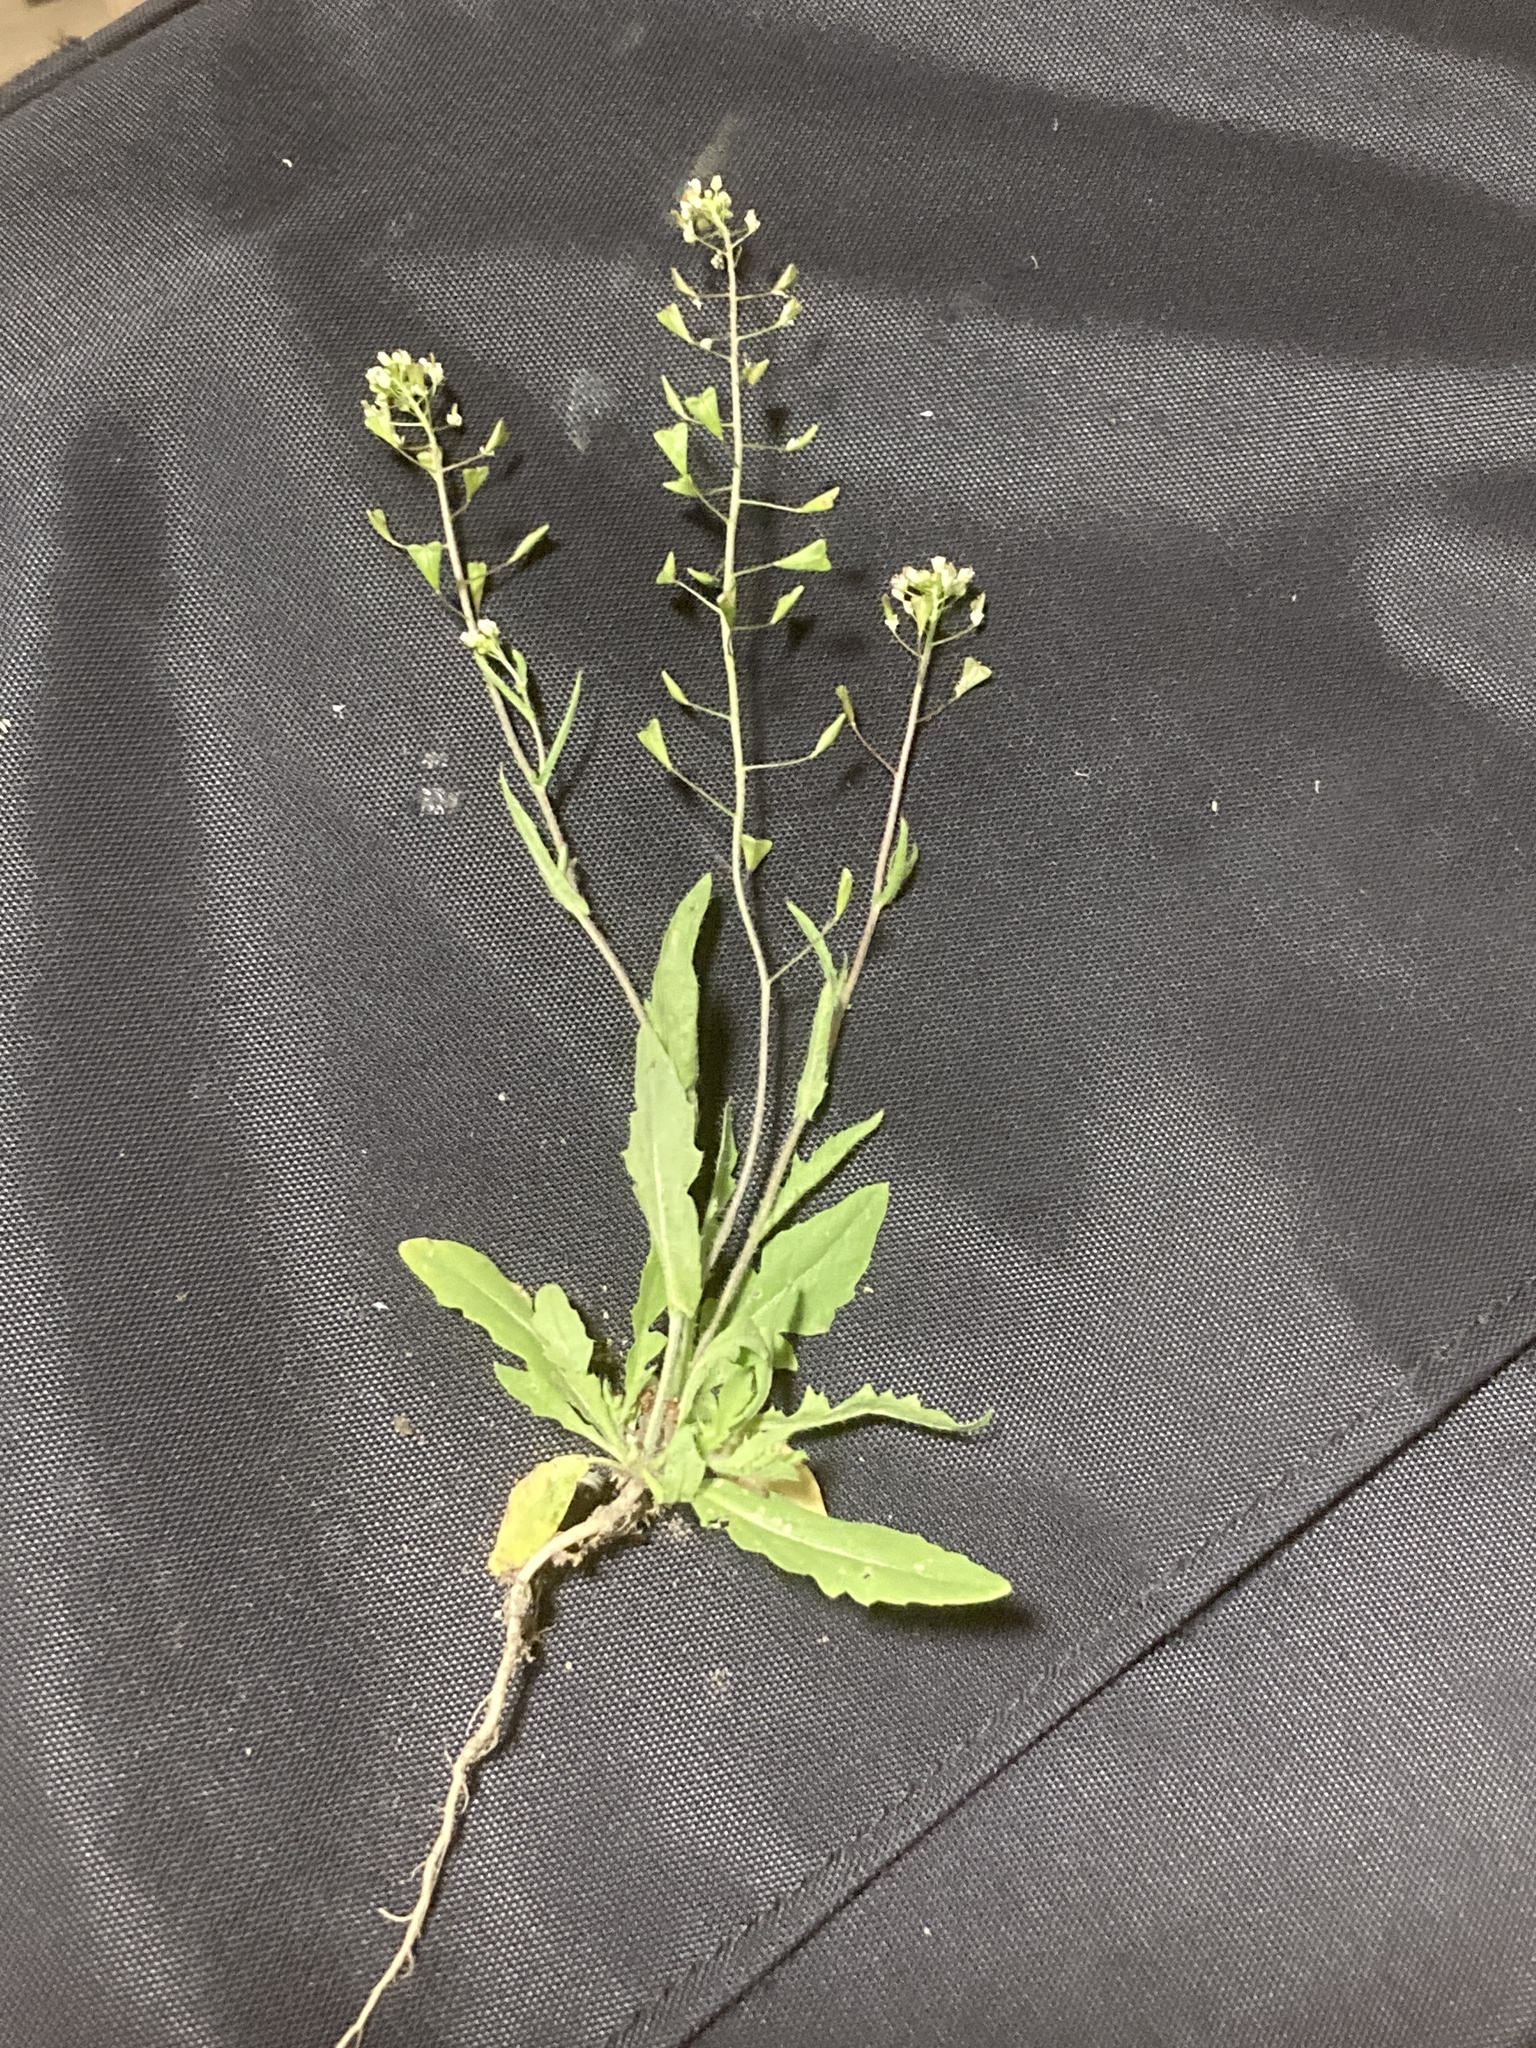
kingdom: Plantae
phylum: Tracheophyta
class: Magnoliopsida
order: Brassicales
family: Brassicaceae
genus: Capsella
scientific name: Capsella bursa-pastoris
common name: Shepherd's purse
